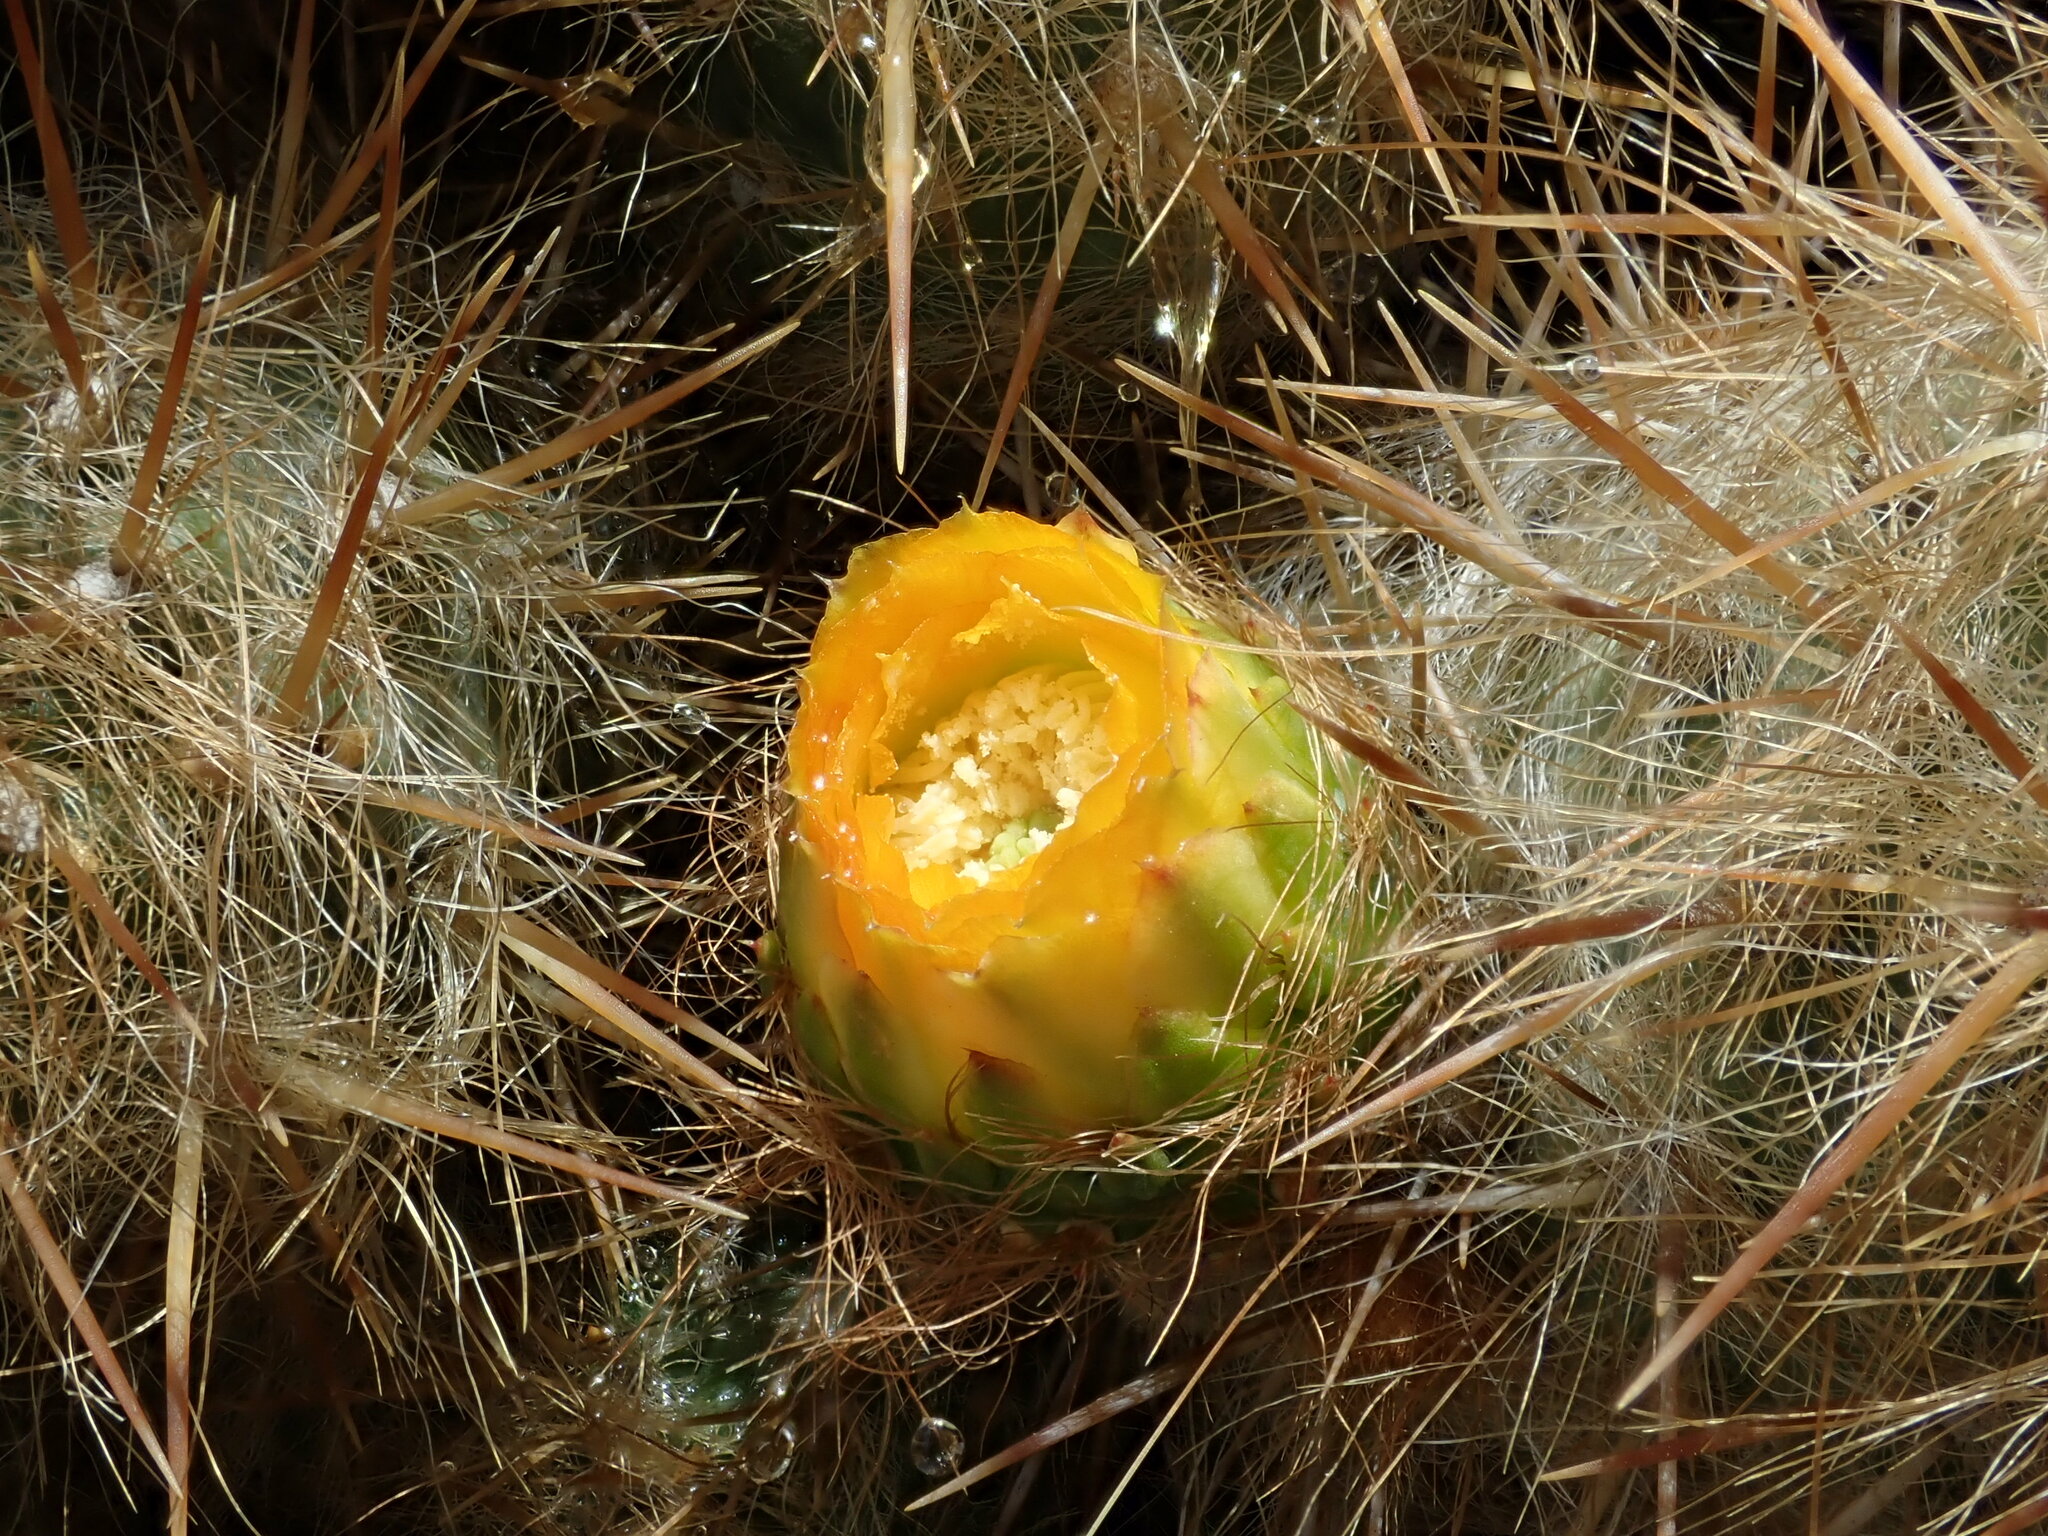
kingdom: Plantae
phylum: Tracheophyta
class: Magnoliopsida
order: Caryophyllales
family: Cactaceae
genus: Austrocylindropuntia
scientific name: Austrocylindropuntia floccosa
